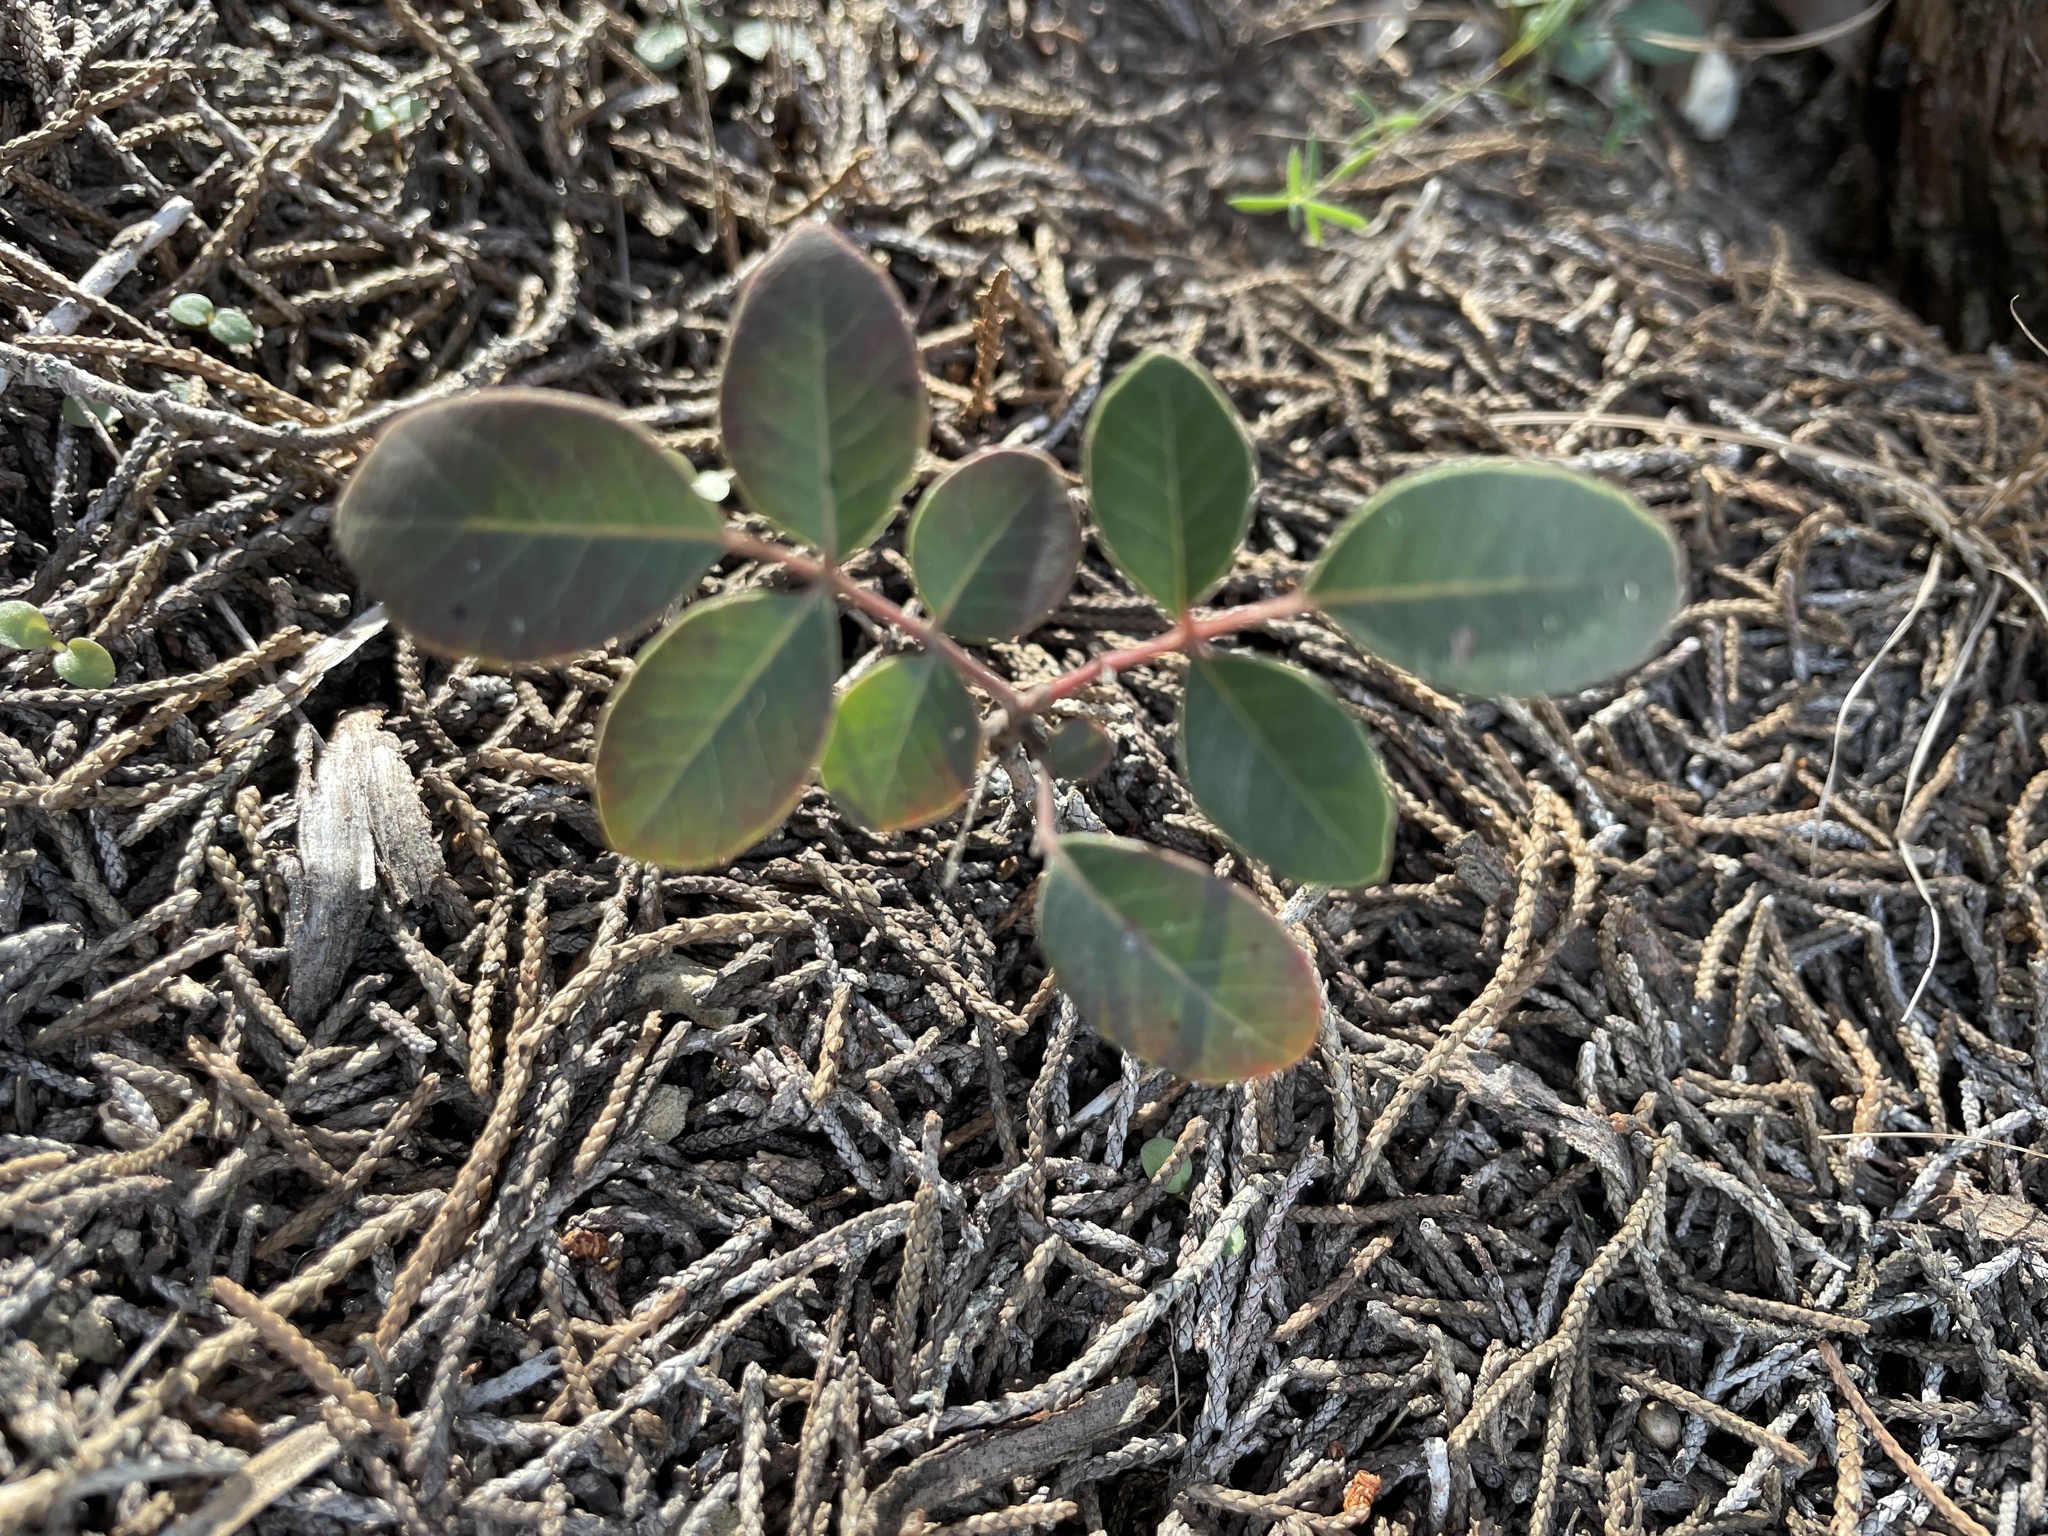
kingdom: Plantae
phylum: Tracheophyta
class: Magnoliopsida
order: Sapindales
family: Anacardiaceae
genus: Rhus
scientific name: Rhus virens
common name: Evergreen sumac
